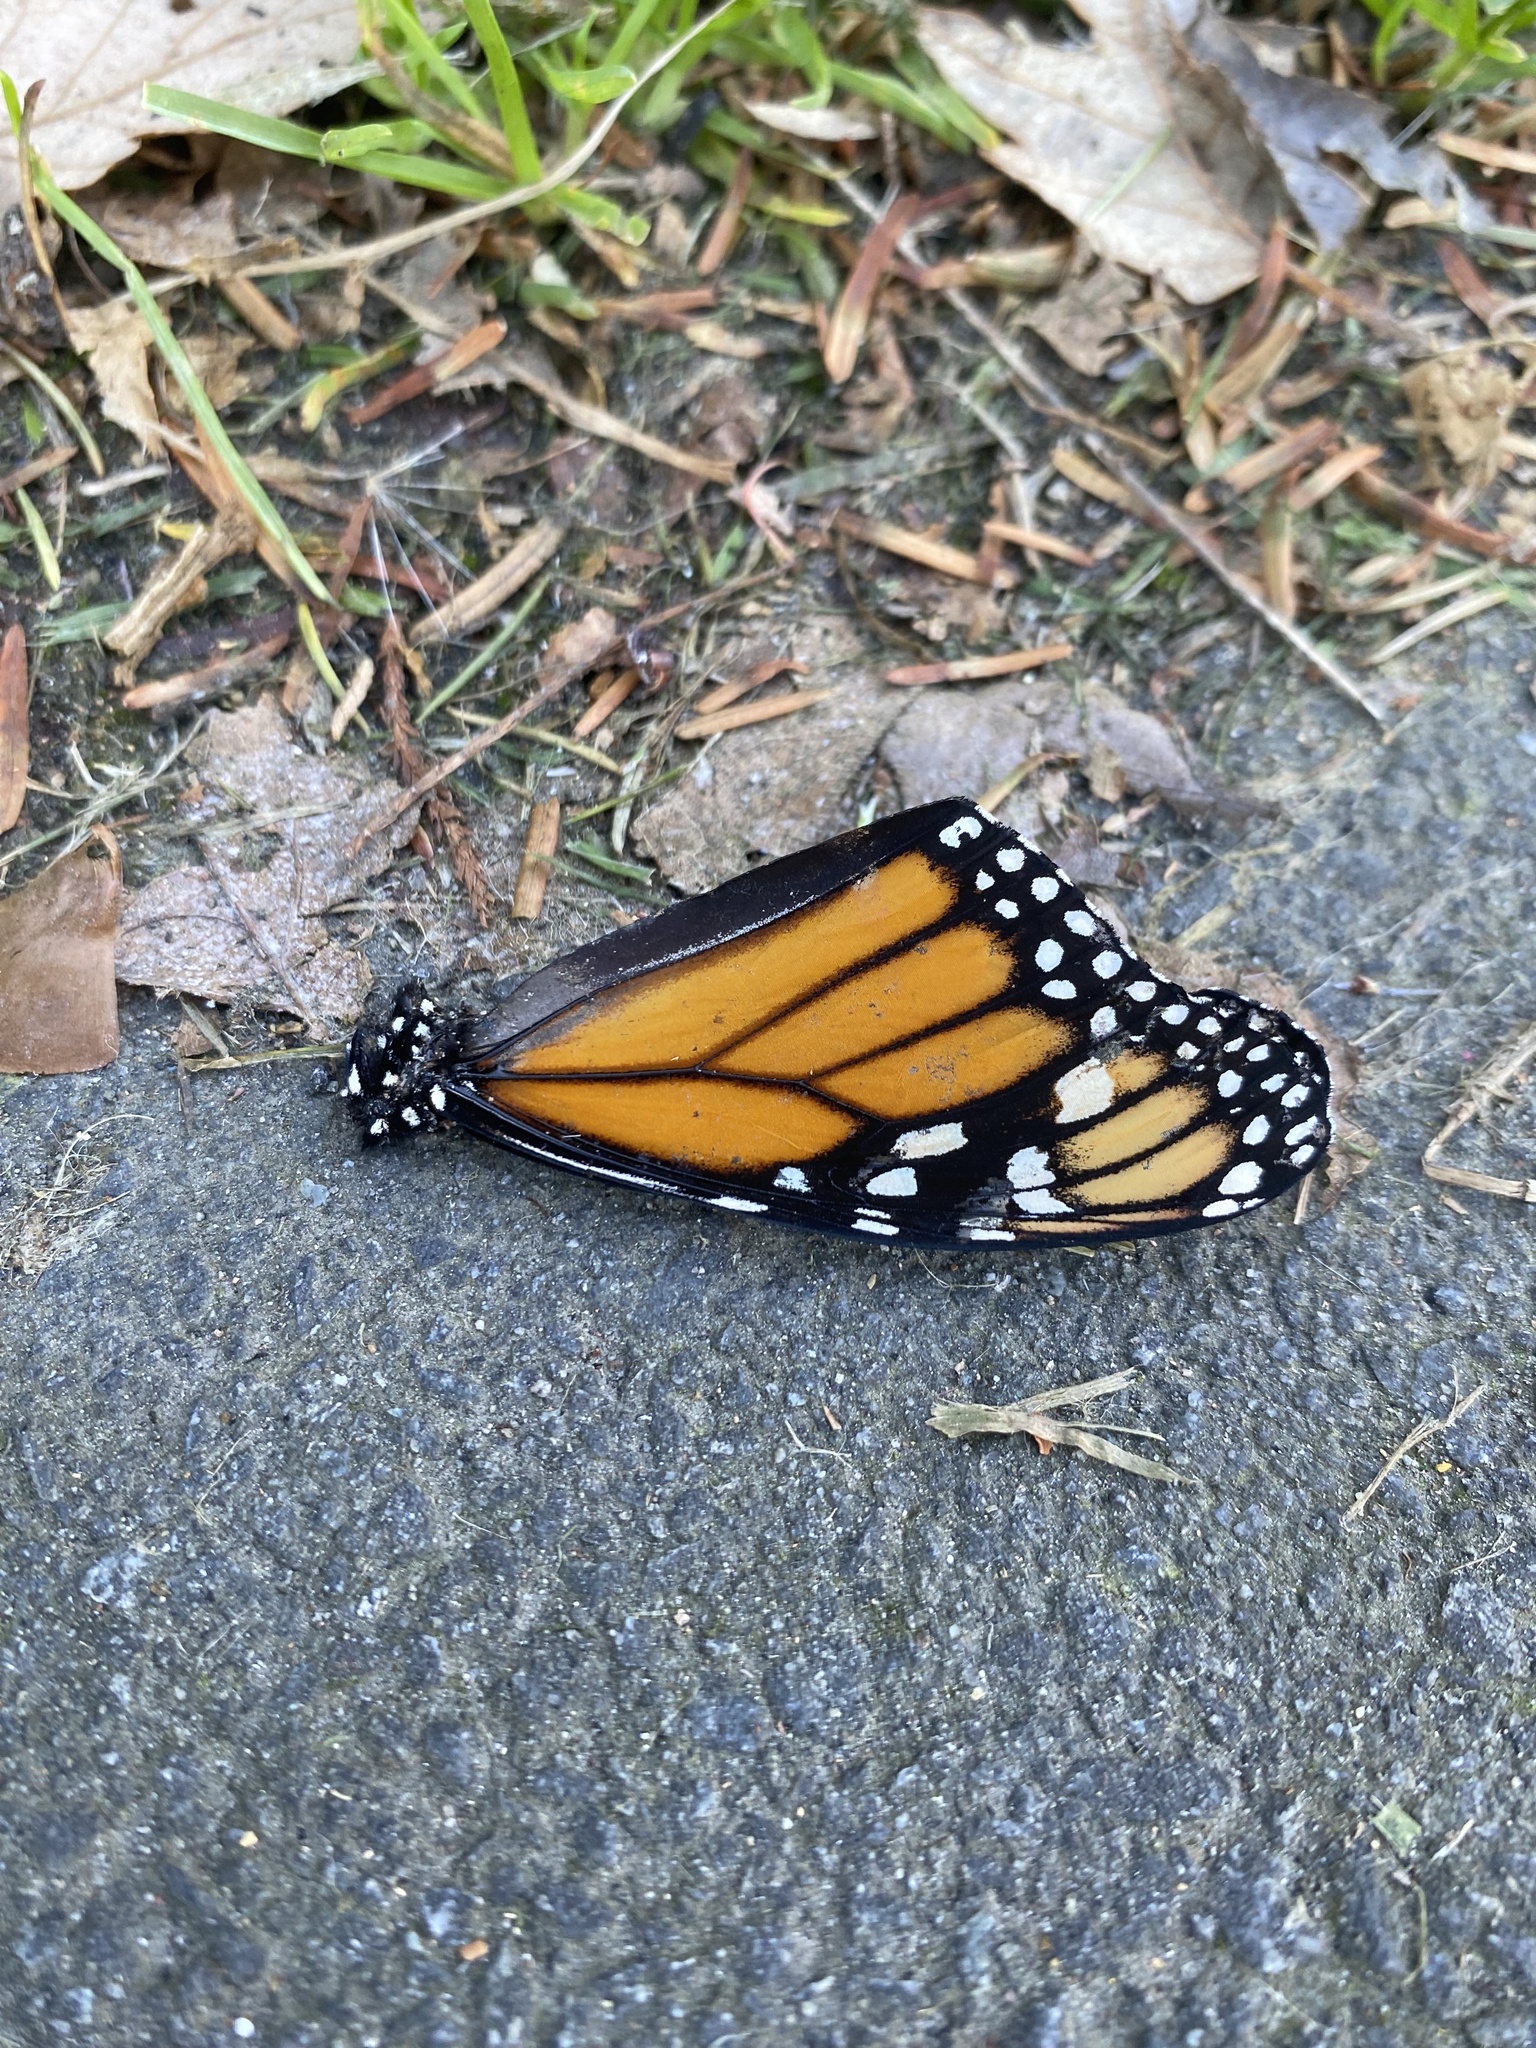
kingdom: Animalia
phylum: Arthropoda
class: Insecta
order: Lepidoptera
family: Nymphalidae
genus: Danaus
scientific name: Danaus plexippus
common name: Monarch
